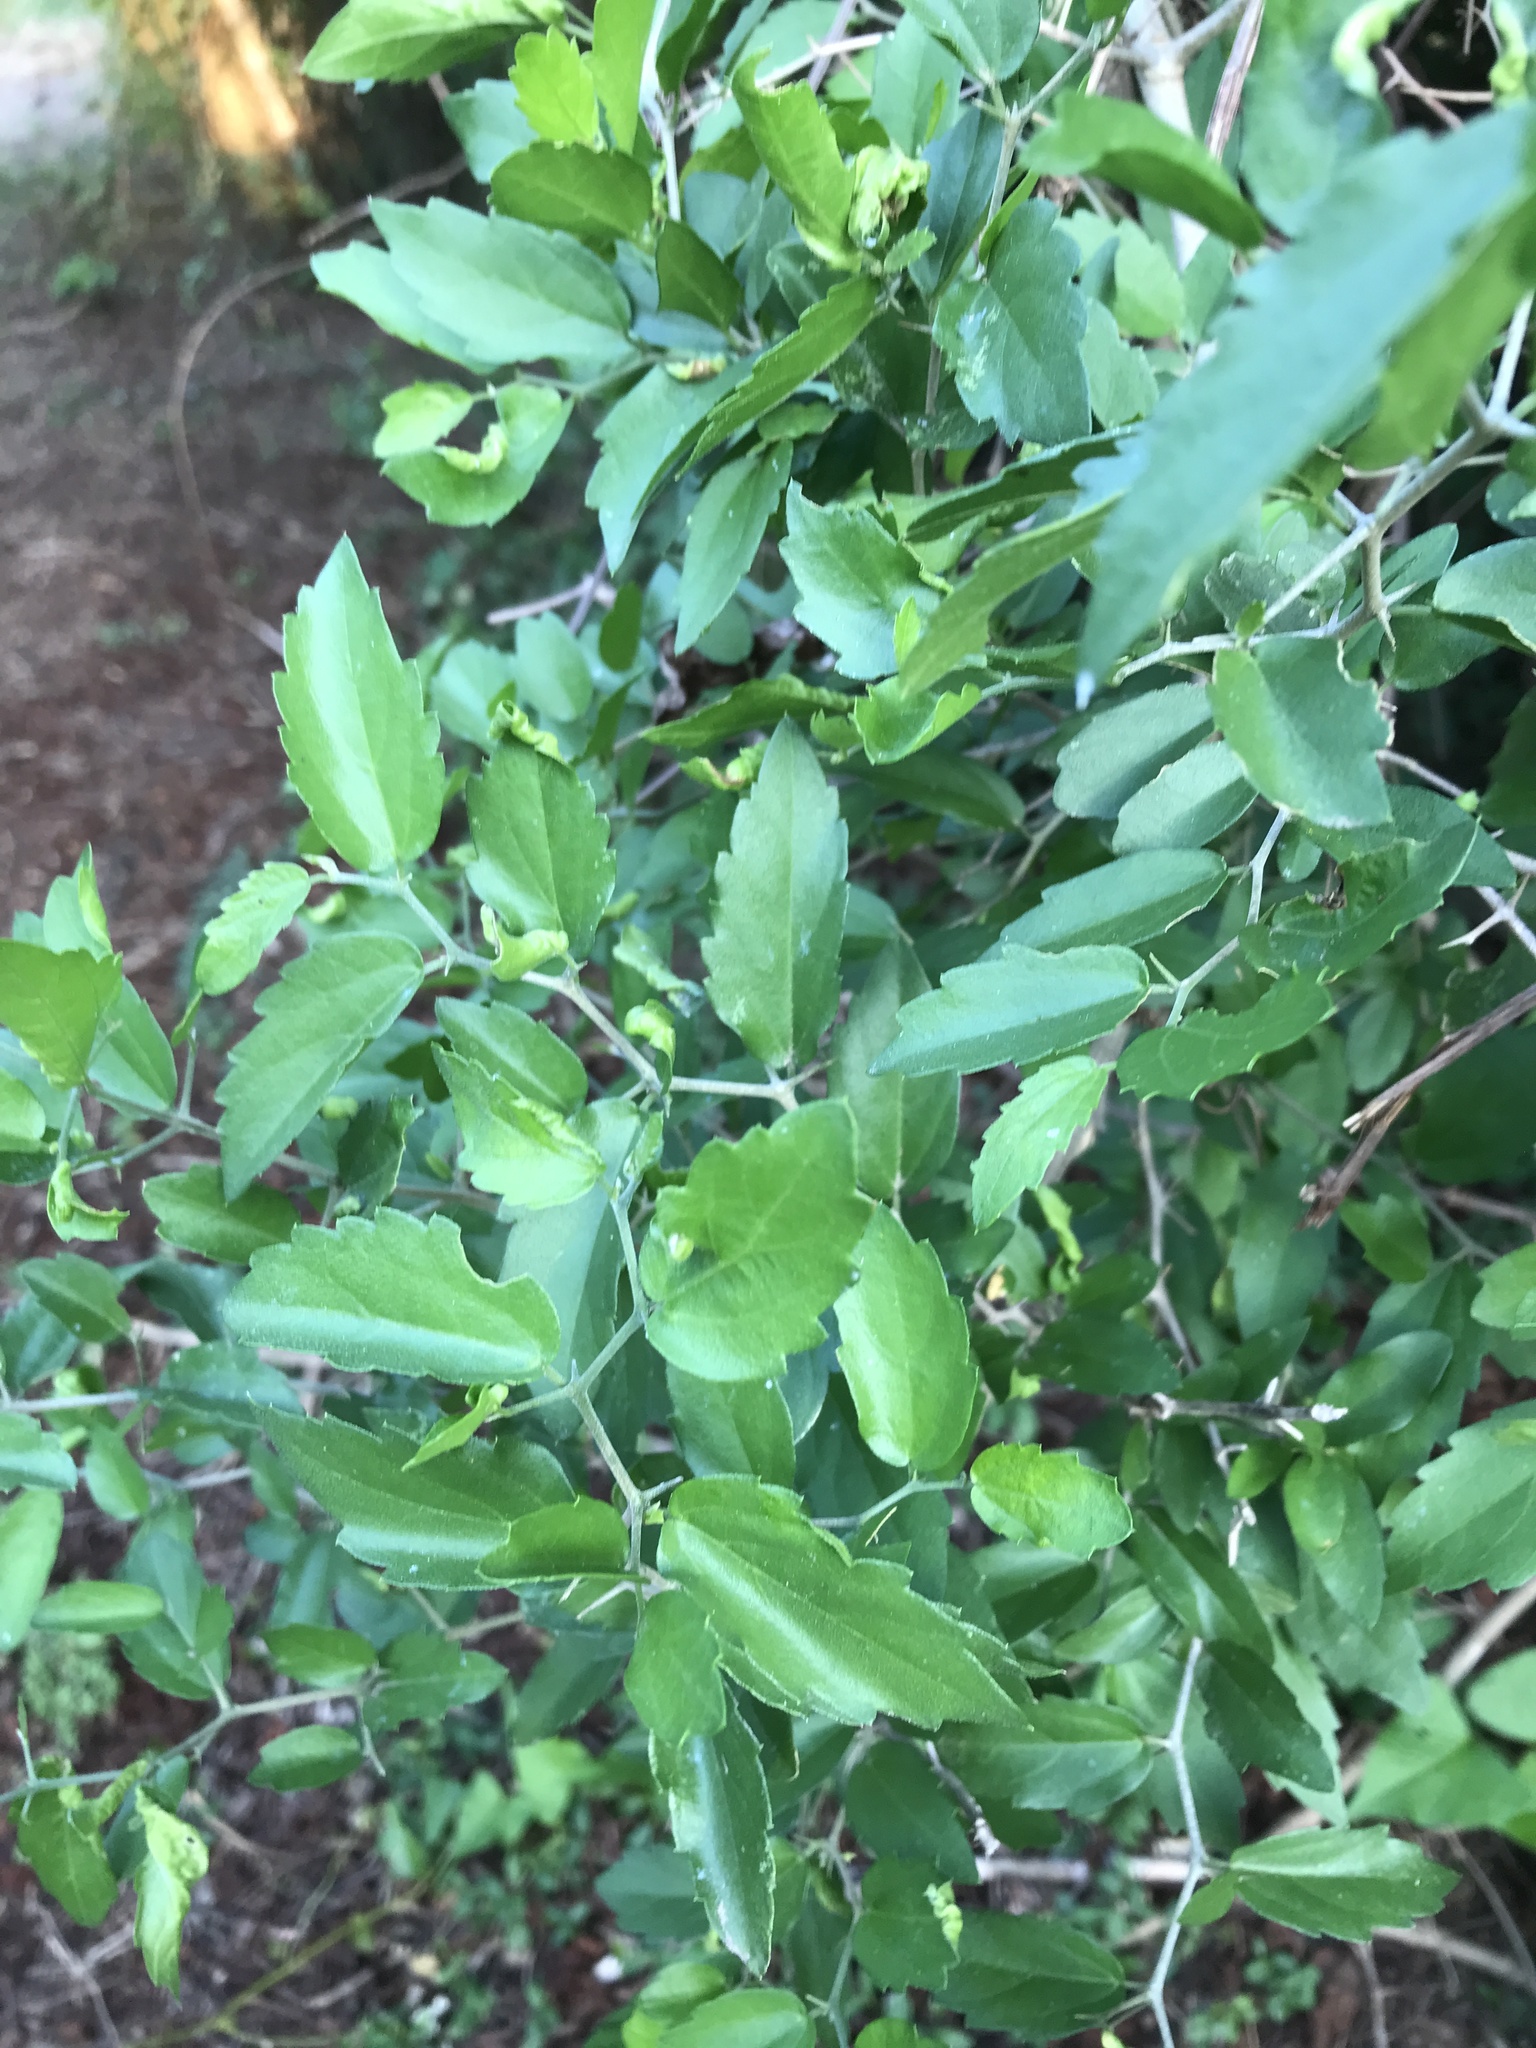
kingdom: Plantae
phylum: Tracheophyta
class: Magnoliopsida
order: Rosales
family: Cannabaceae
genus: Celtis
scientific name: Celtis pallida
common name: Desert hackberry
